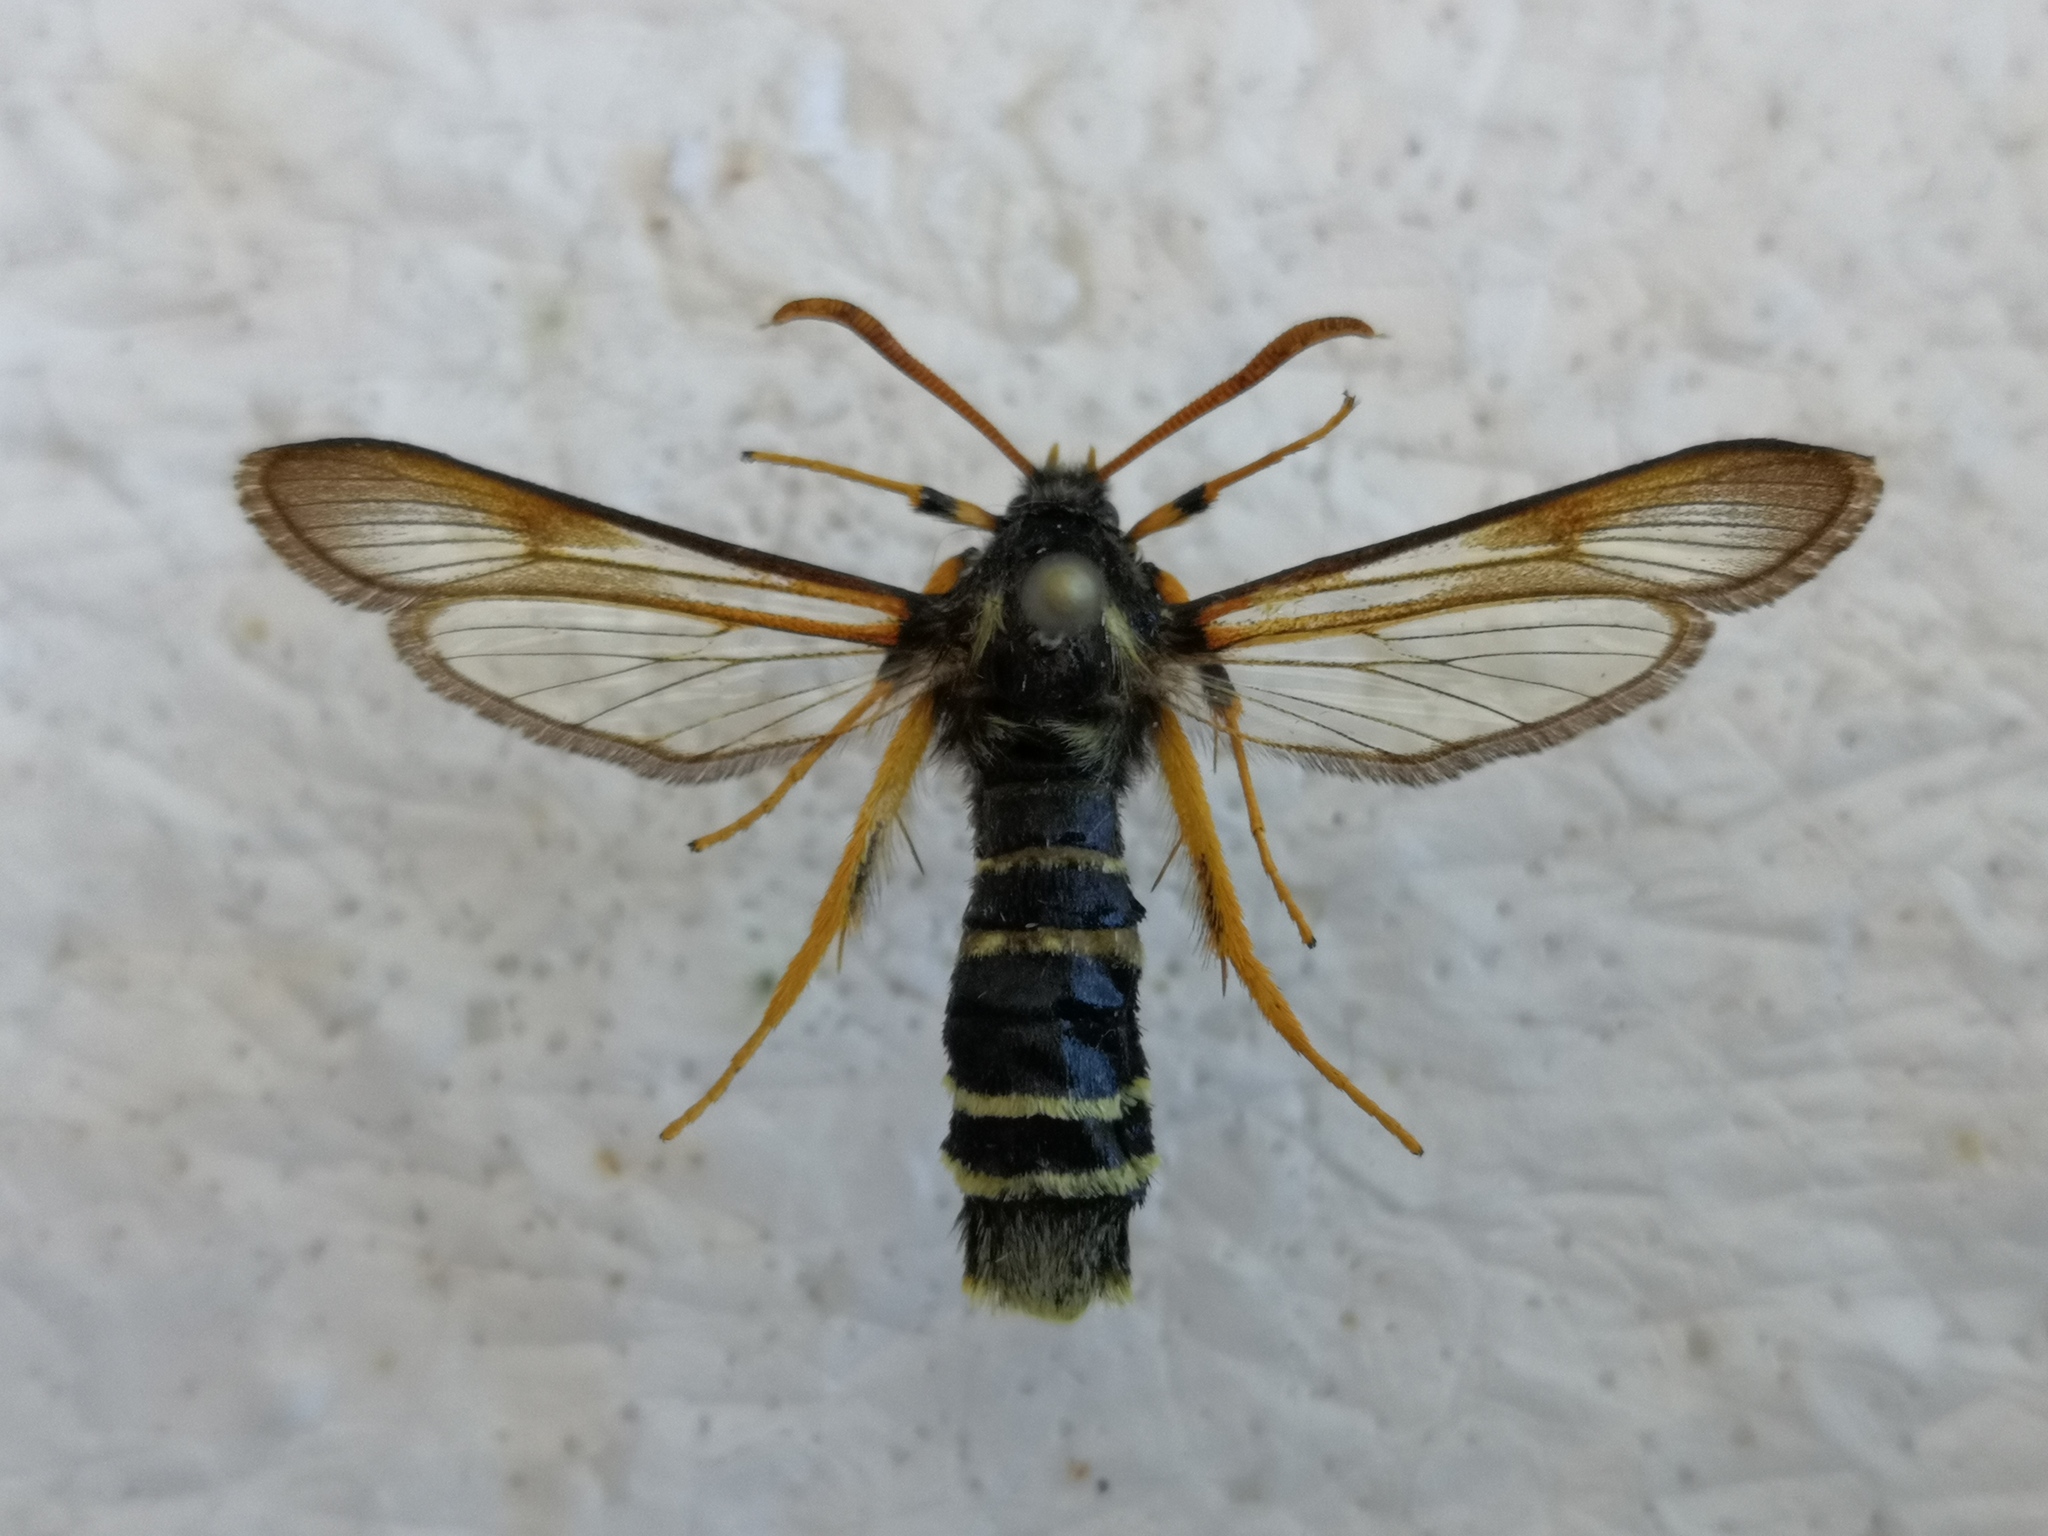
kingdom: Animalia
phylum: Arthropoda
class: Insecta
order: Lepidoptera
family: Sesiidae
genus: Eusphecia
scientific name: Eusphecia melanocephala
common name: Aspen clearwing
